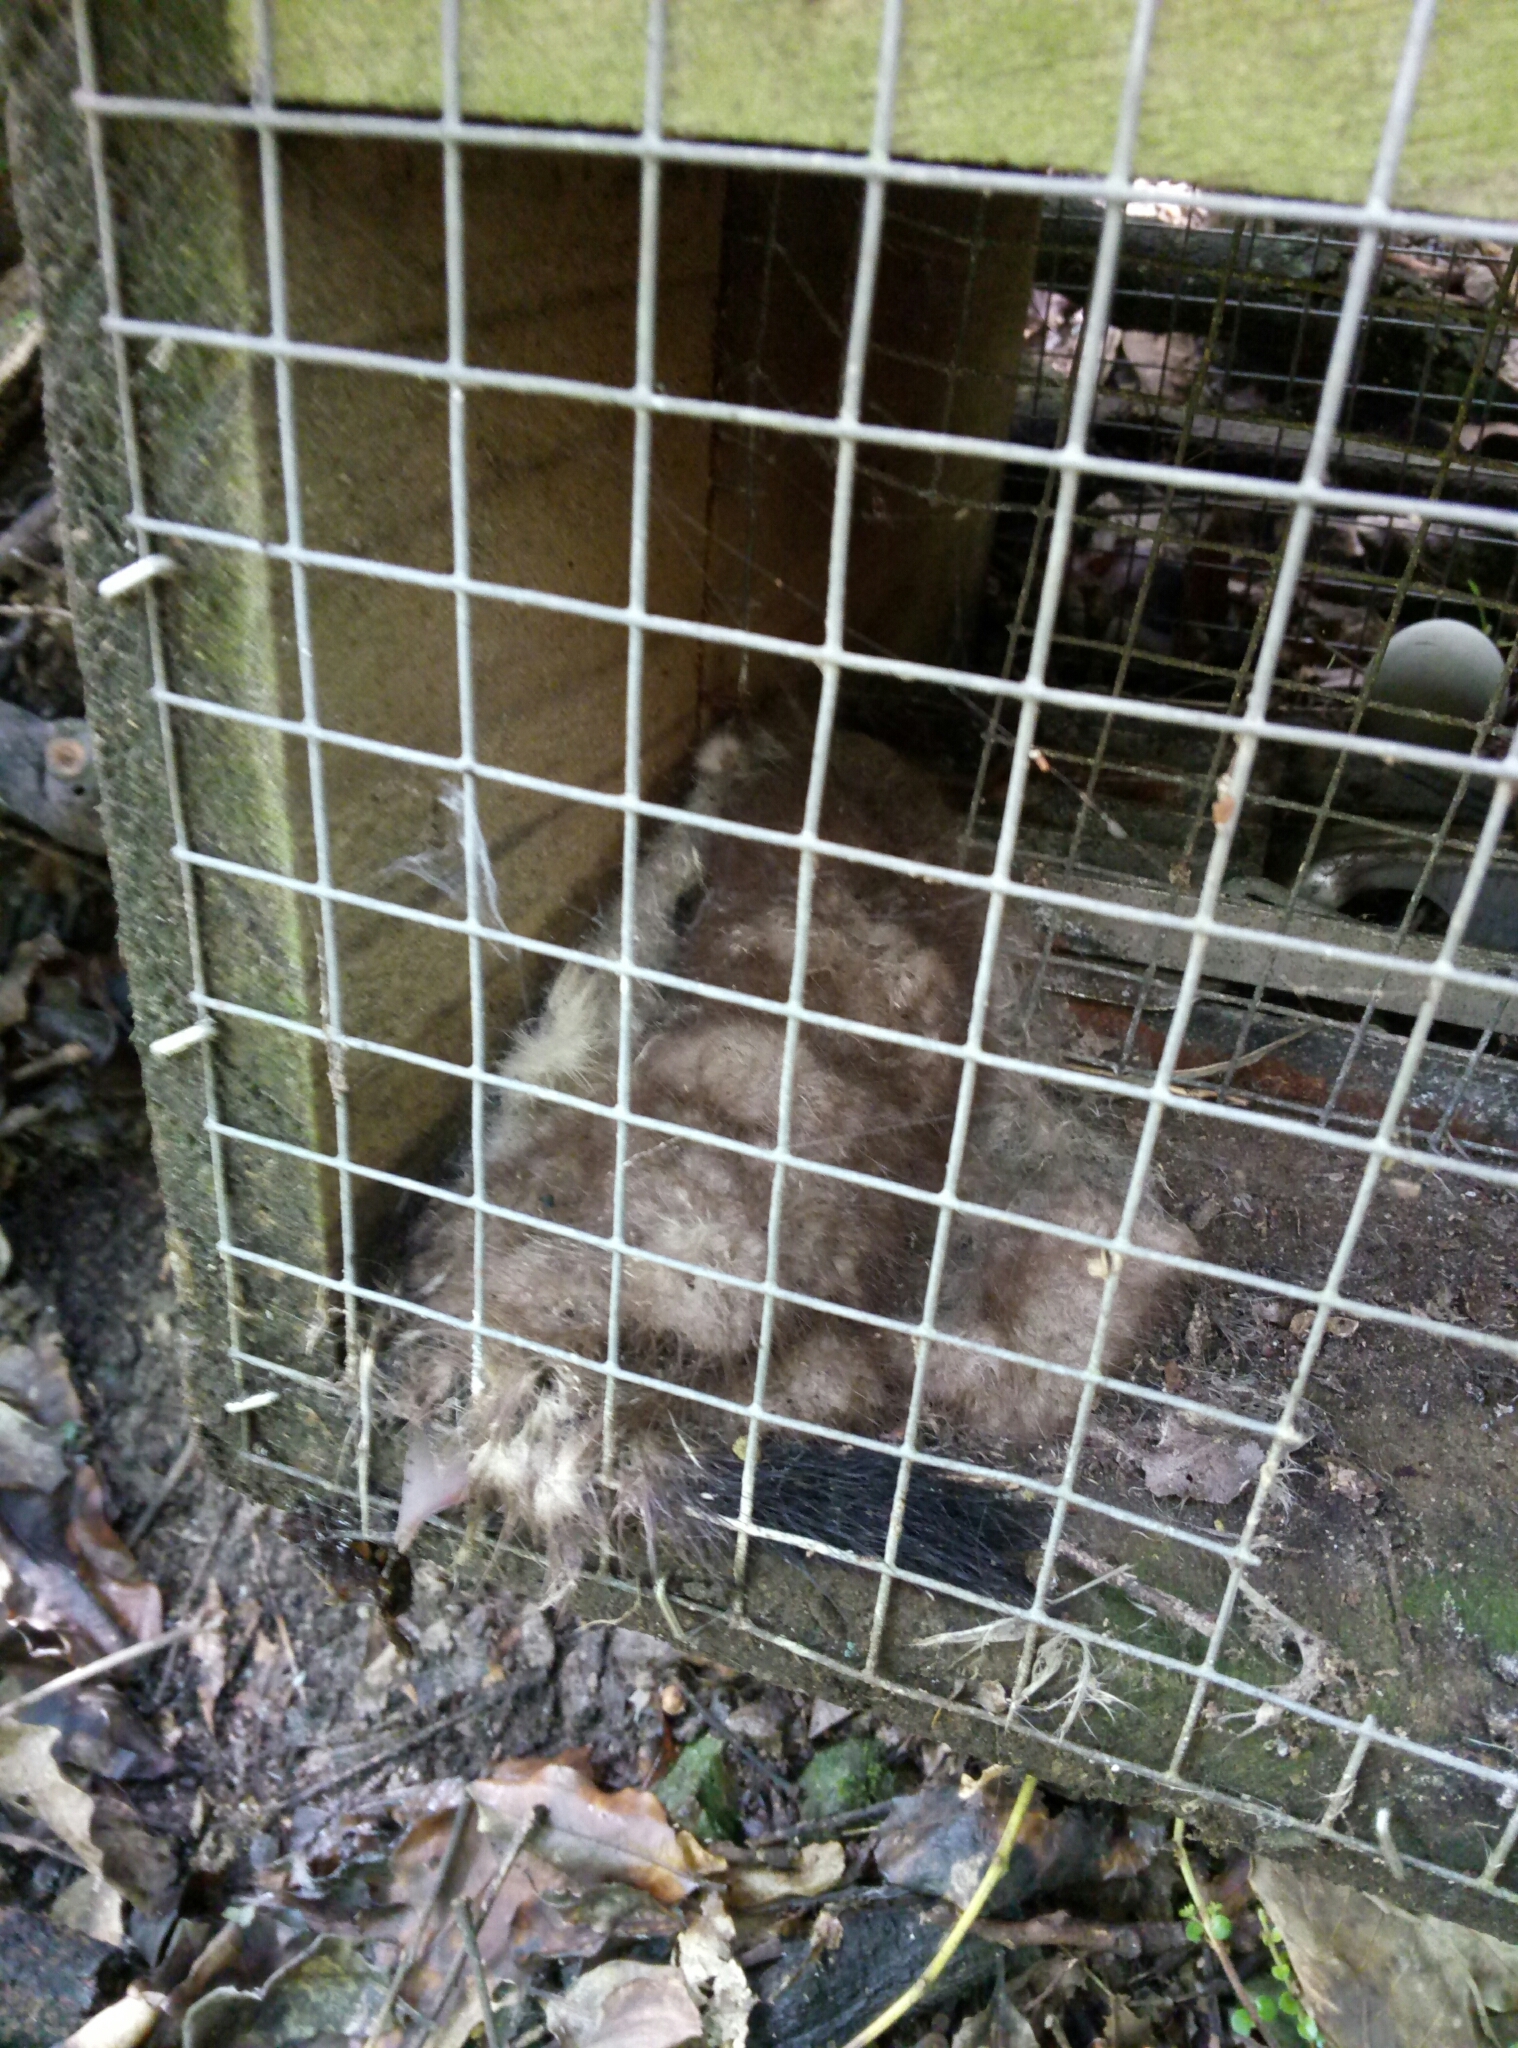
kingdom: Animalia
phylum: Chordata
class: Mammalia
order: Carnivora
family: Mustelidae
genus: Mustela
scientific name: Mustela erminea
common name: Stoat
